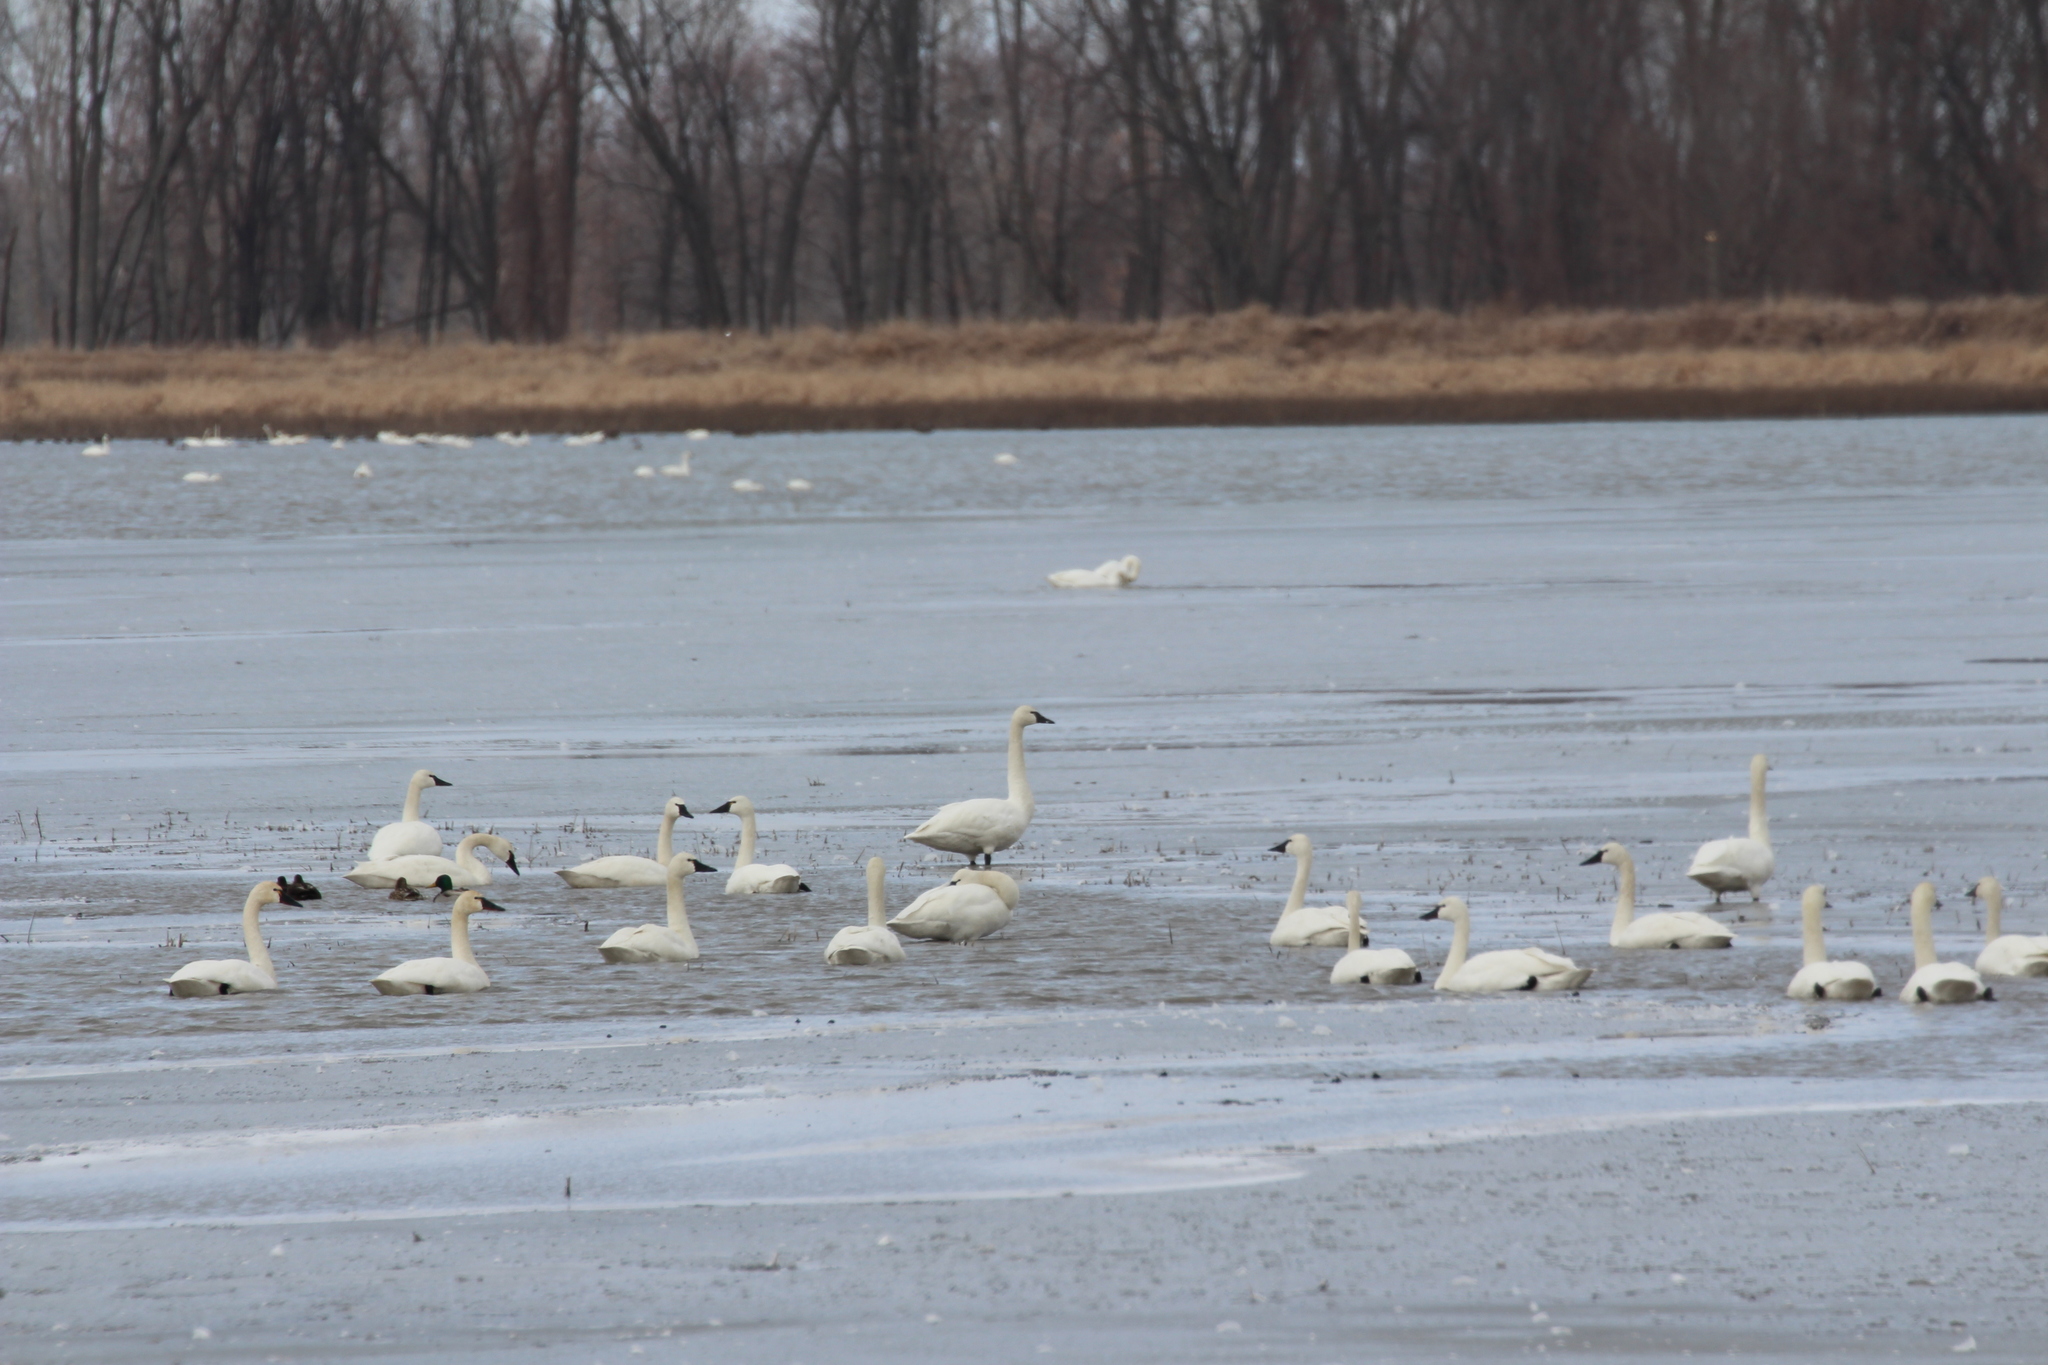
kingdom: Animalia
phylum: Chordata
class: Aves
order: Anseriformes
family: Anatidae
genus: Cygnus
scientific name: Cygnus columbianus
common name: Tundra swan
